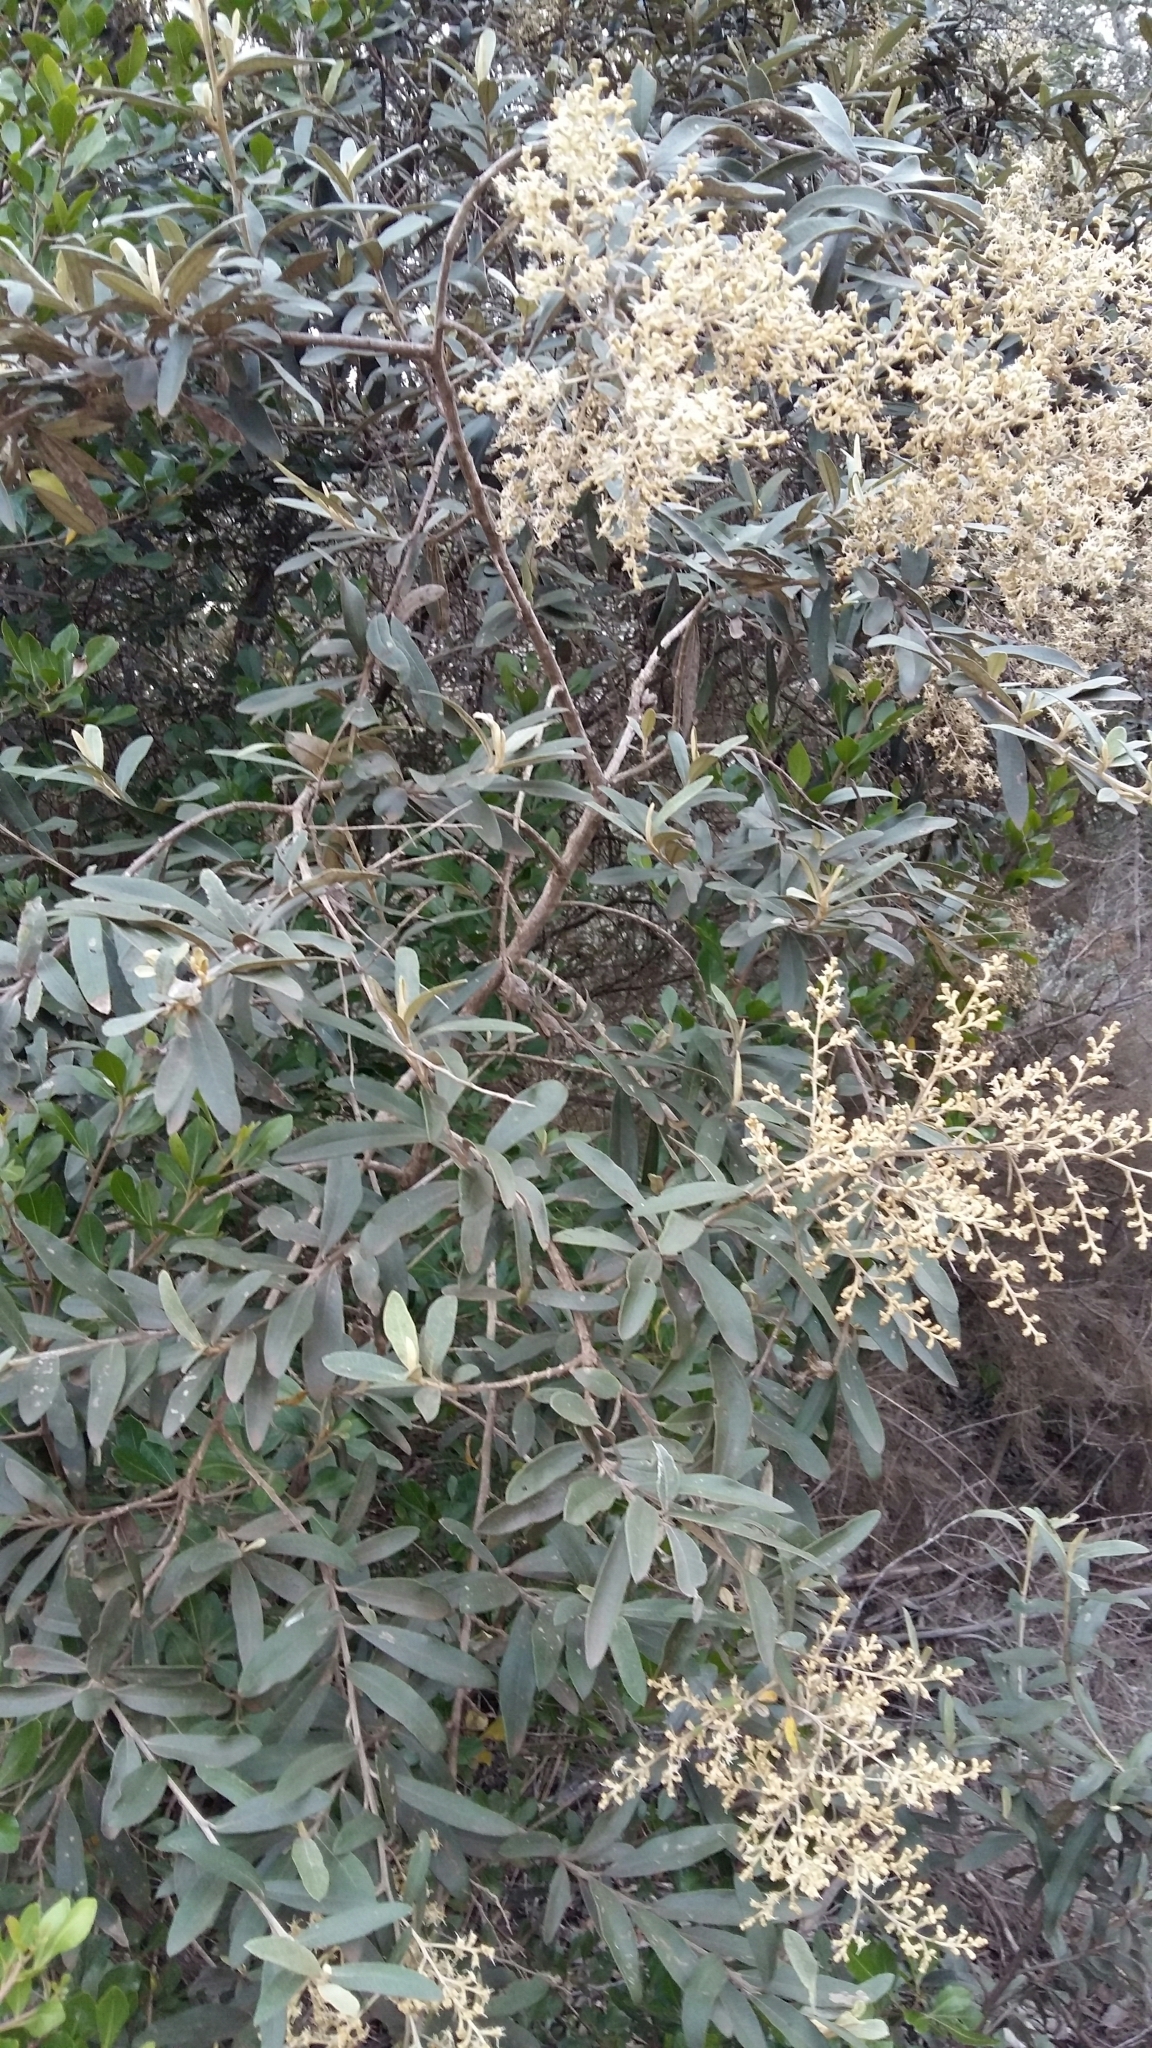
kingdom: Plantae
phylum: Tracheophyta
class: Magnoliopsida
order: Asterales
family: Asteraceae
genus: Tarchonanthus
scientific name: Tarchonanthus littoralis
